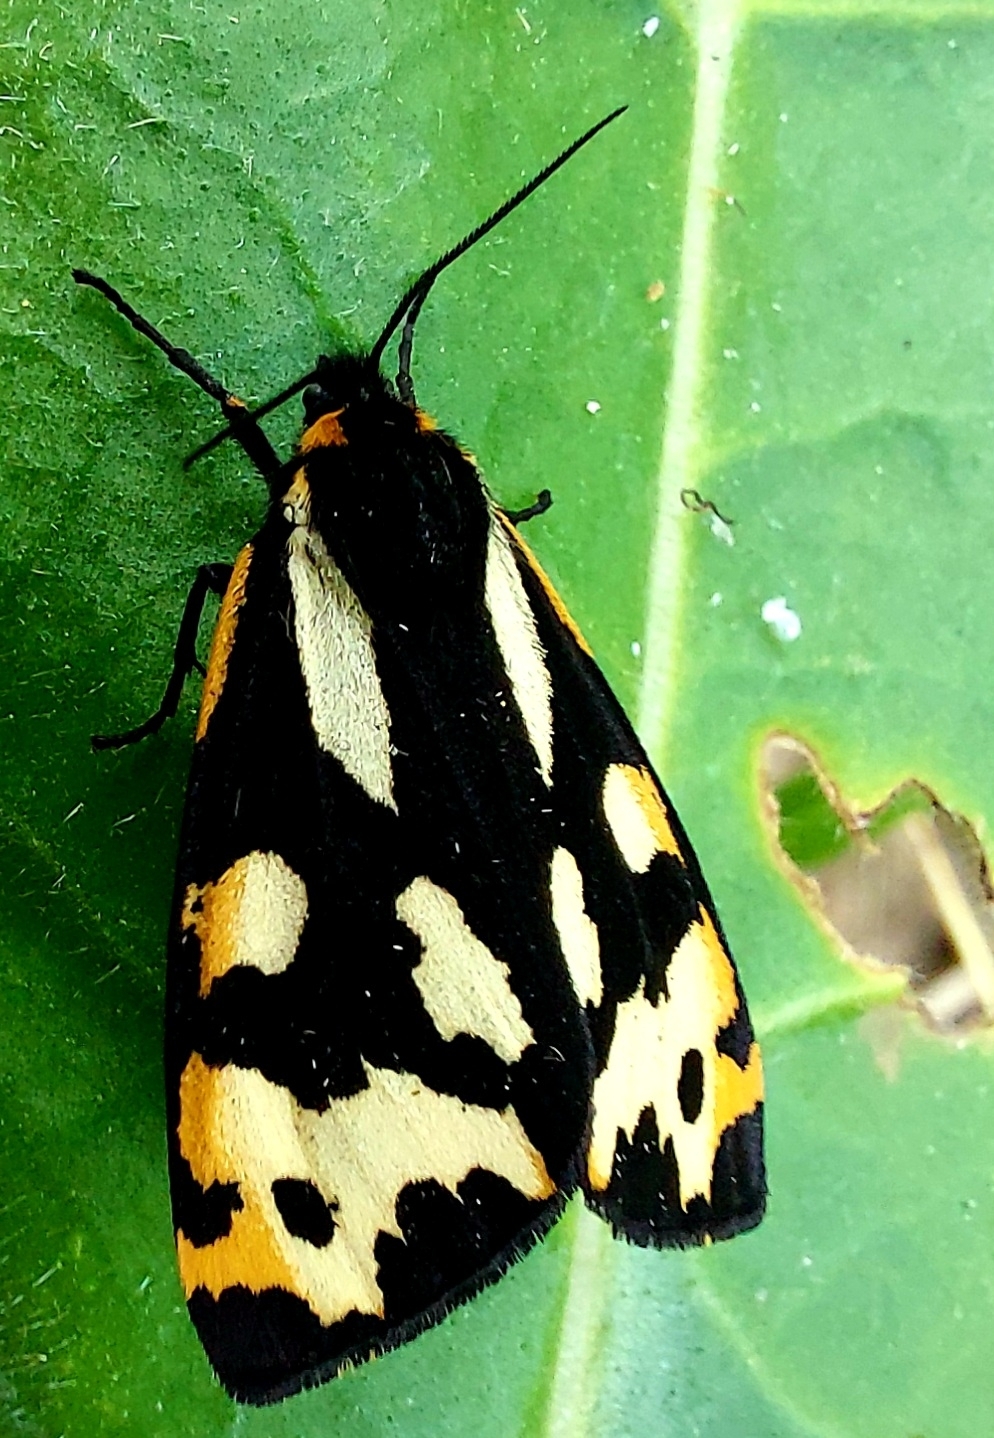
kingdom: Animalia
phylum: Arthropoda
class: Insecta
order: Lepidoptera
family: Erebidae
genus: Parasemia
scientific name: Parasemia plantaginis
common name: Wood tiger
